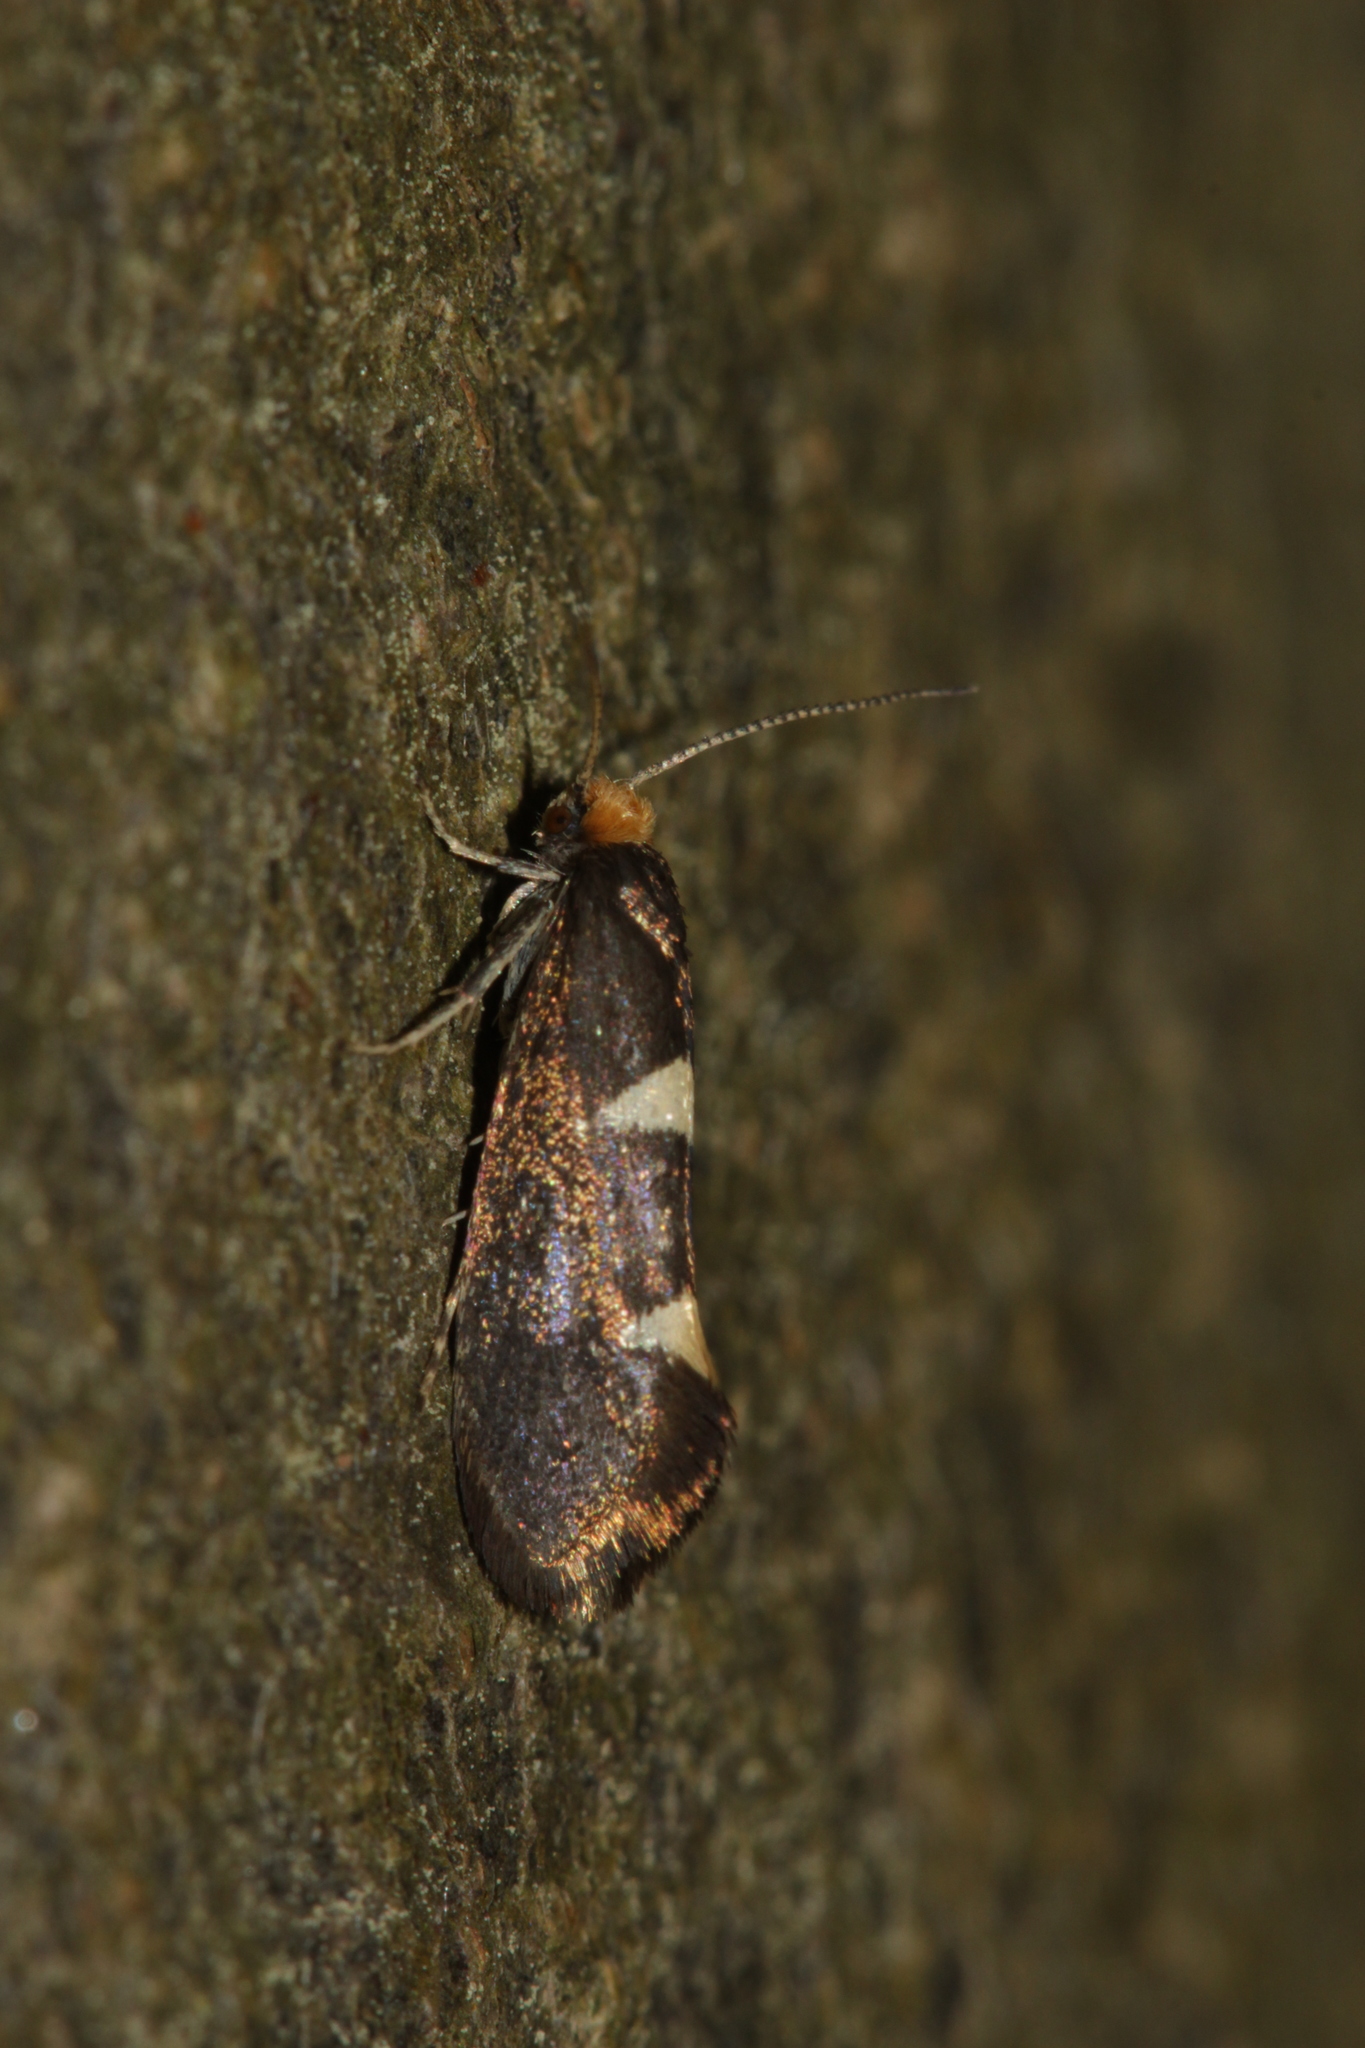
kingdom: Animalia
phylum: Arthropoda
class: Insecta
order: Lepidoptera
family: Incurvariidae
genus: Incurvaria
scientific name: Incurvaria masculella
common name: Feathered leaf-cutter
